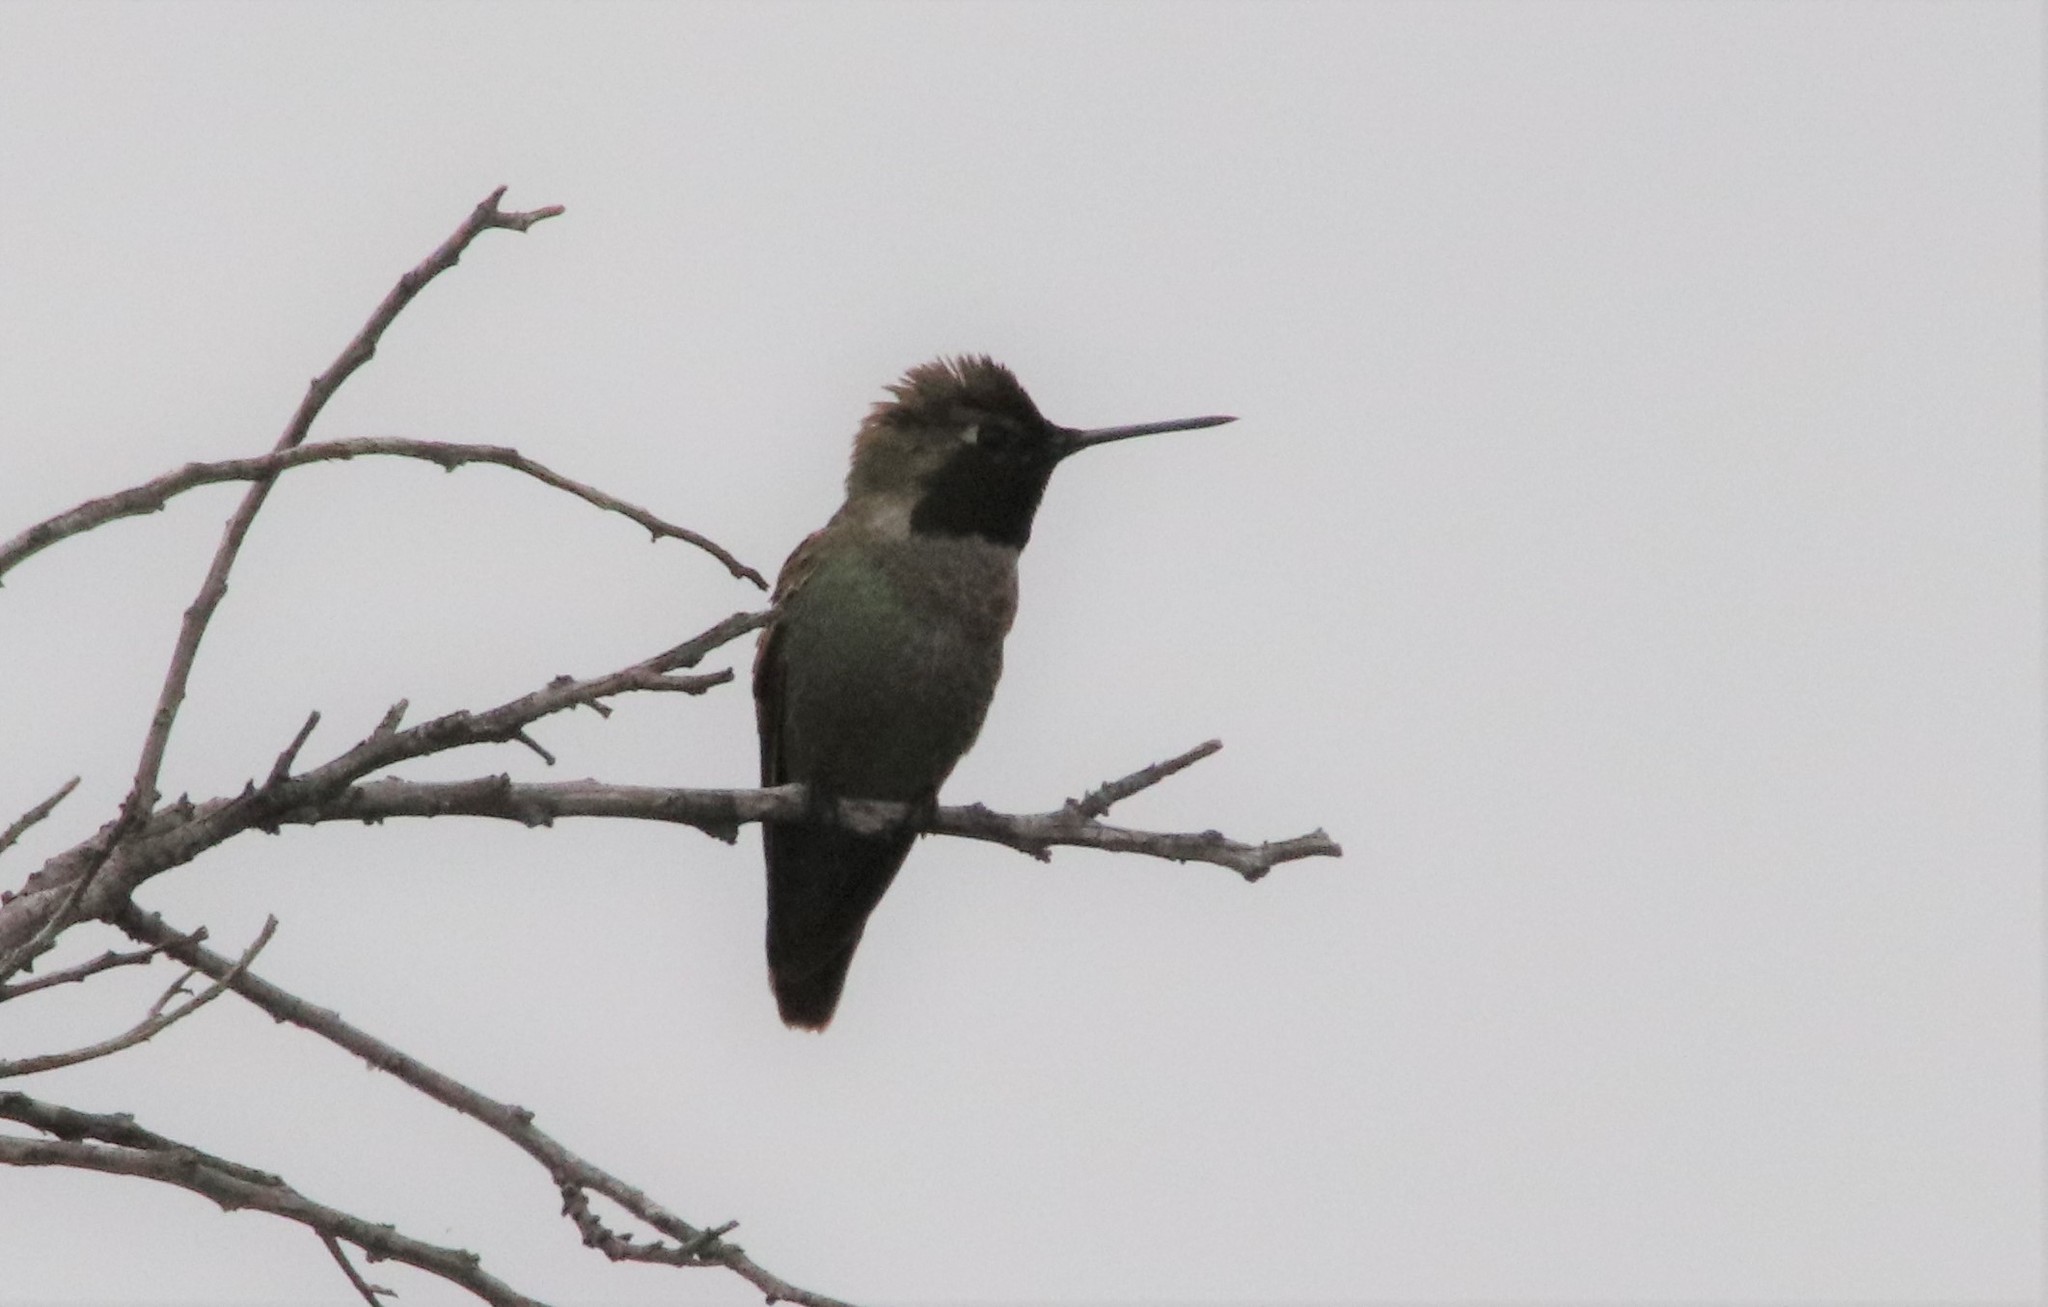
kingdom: Animalia
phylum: Chordata
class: Aves
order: Apodiformes
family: Trochilidae
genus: Calypte
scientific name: Calypte anna
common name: Anna's hummingbird
